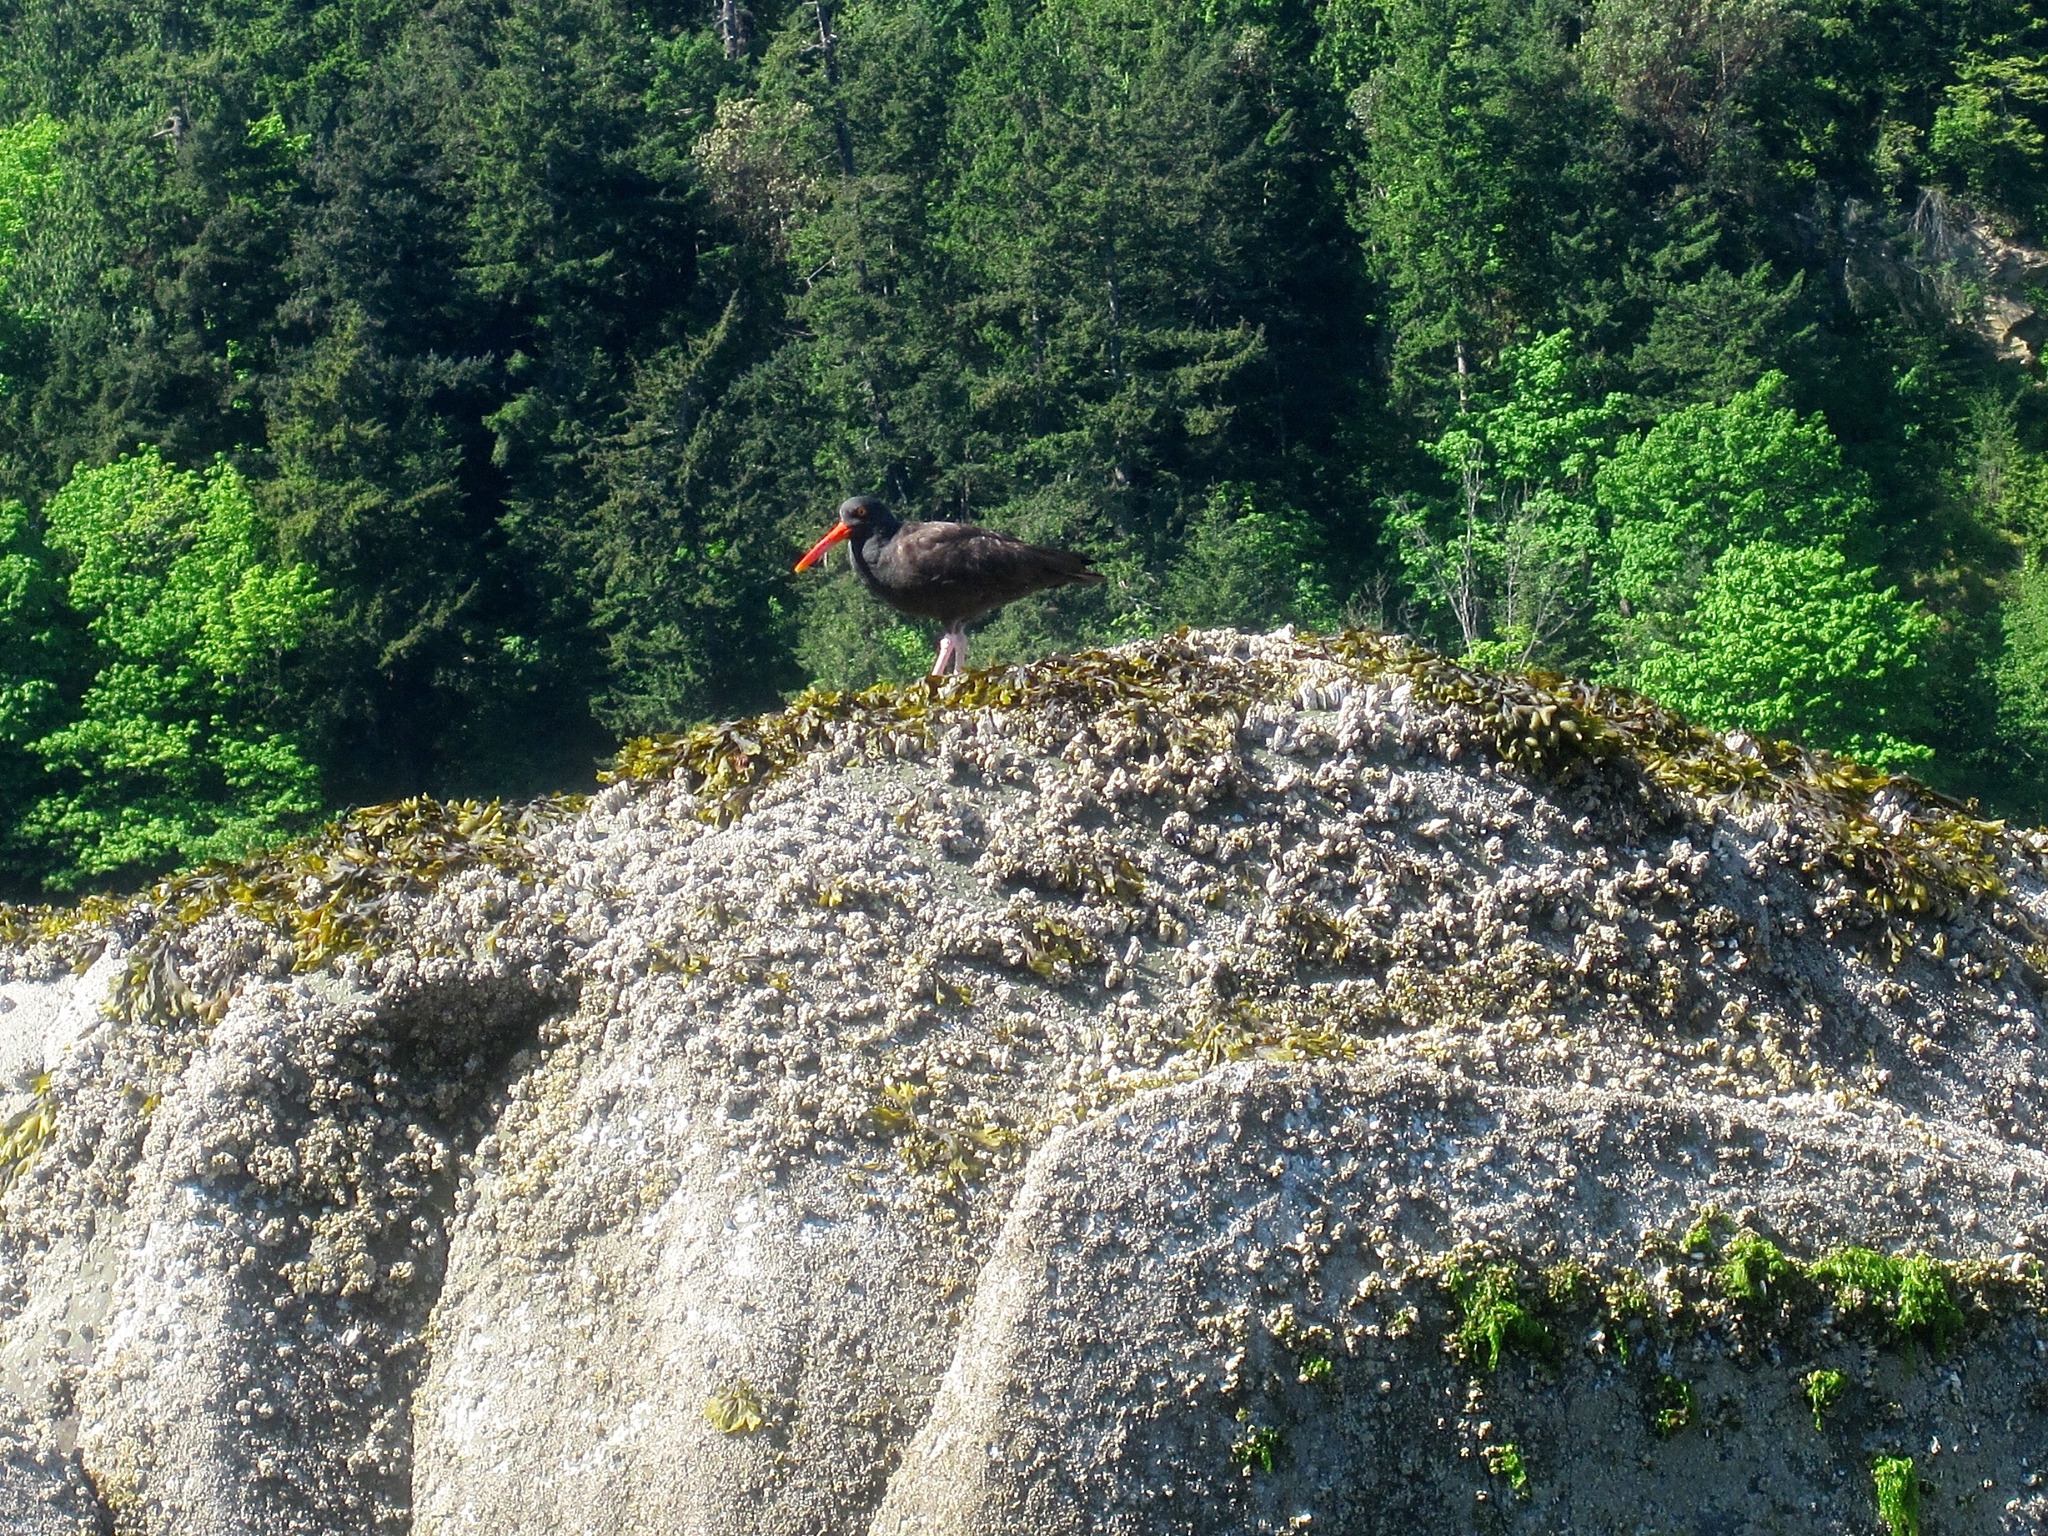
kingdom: Animalia
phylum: Chordata
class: Aves
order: Charadriiformes
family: Haematopodidae
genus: Haematopus
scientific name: Haematopus bachmani
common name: Black oystercatcher
